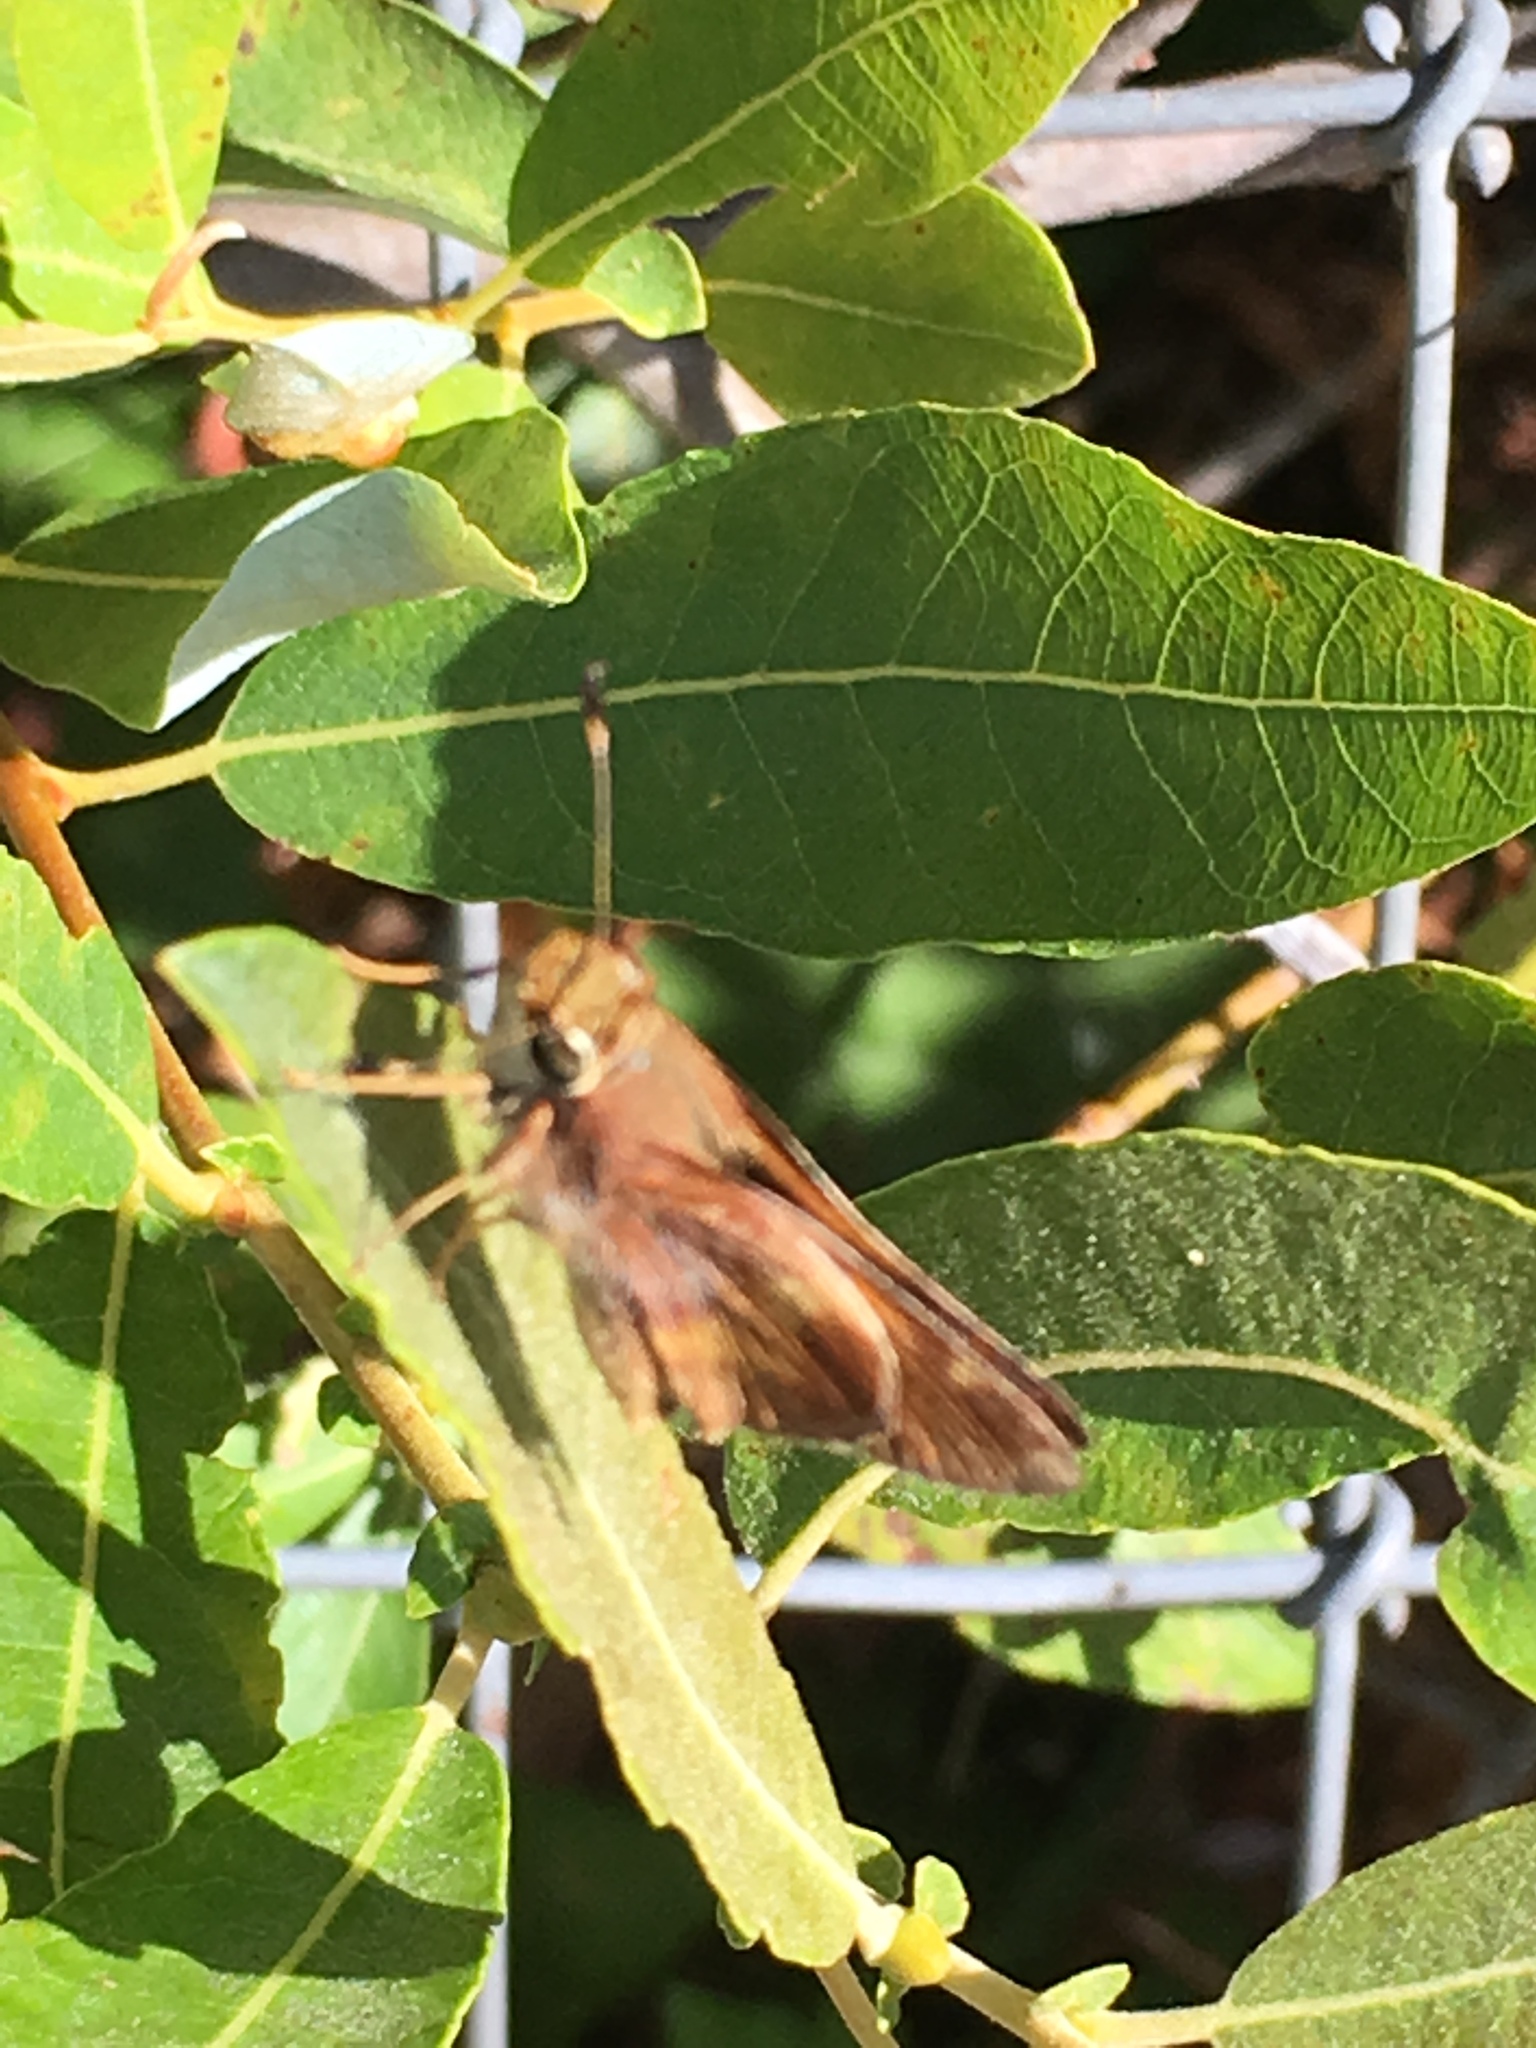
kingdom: Animalia
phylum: Arthropoda
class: Insecta
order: Lepidoptera
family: Hesperiidae
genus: Lon
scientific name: Lon melane
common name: Umber skipper
